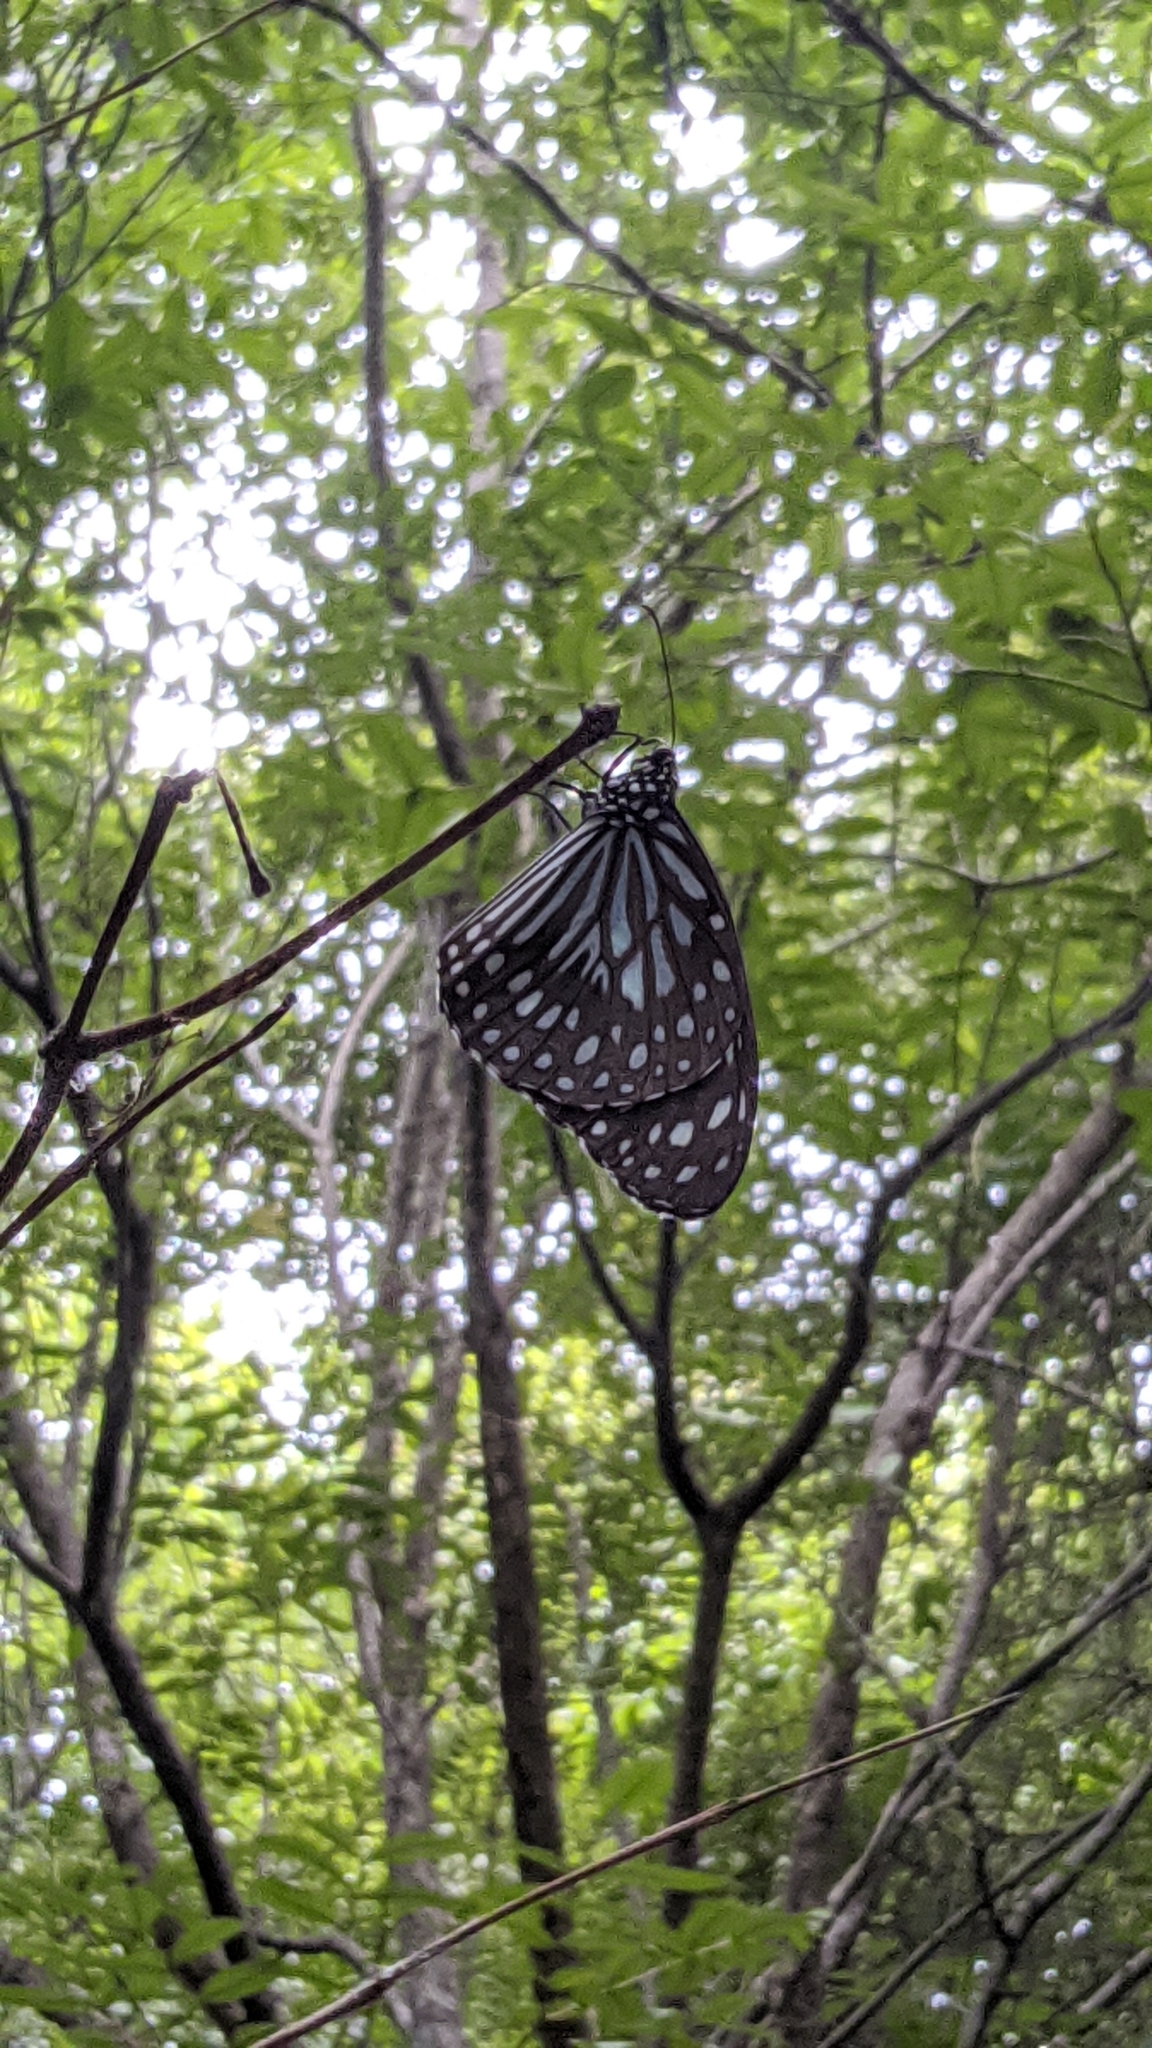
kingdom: Animalia
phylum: Arthropoda
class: Insecta
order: Lepidoptera
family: Nymphalidae
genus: Tirumala
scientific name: Tirumala septentrionis
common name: Dark blue tiger butterfly
